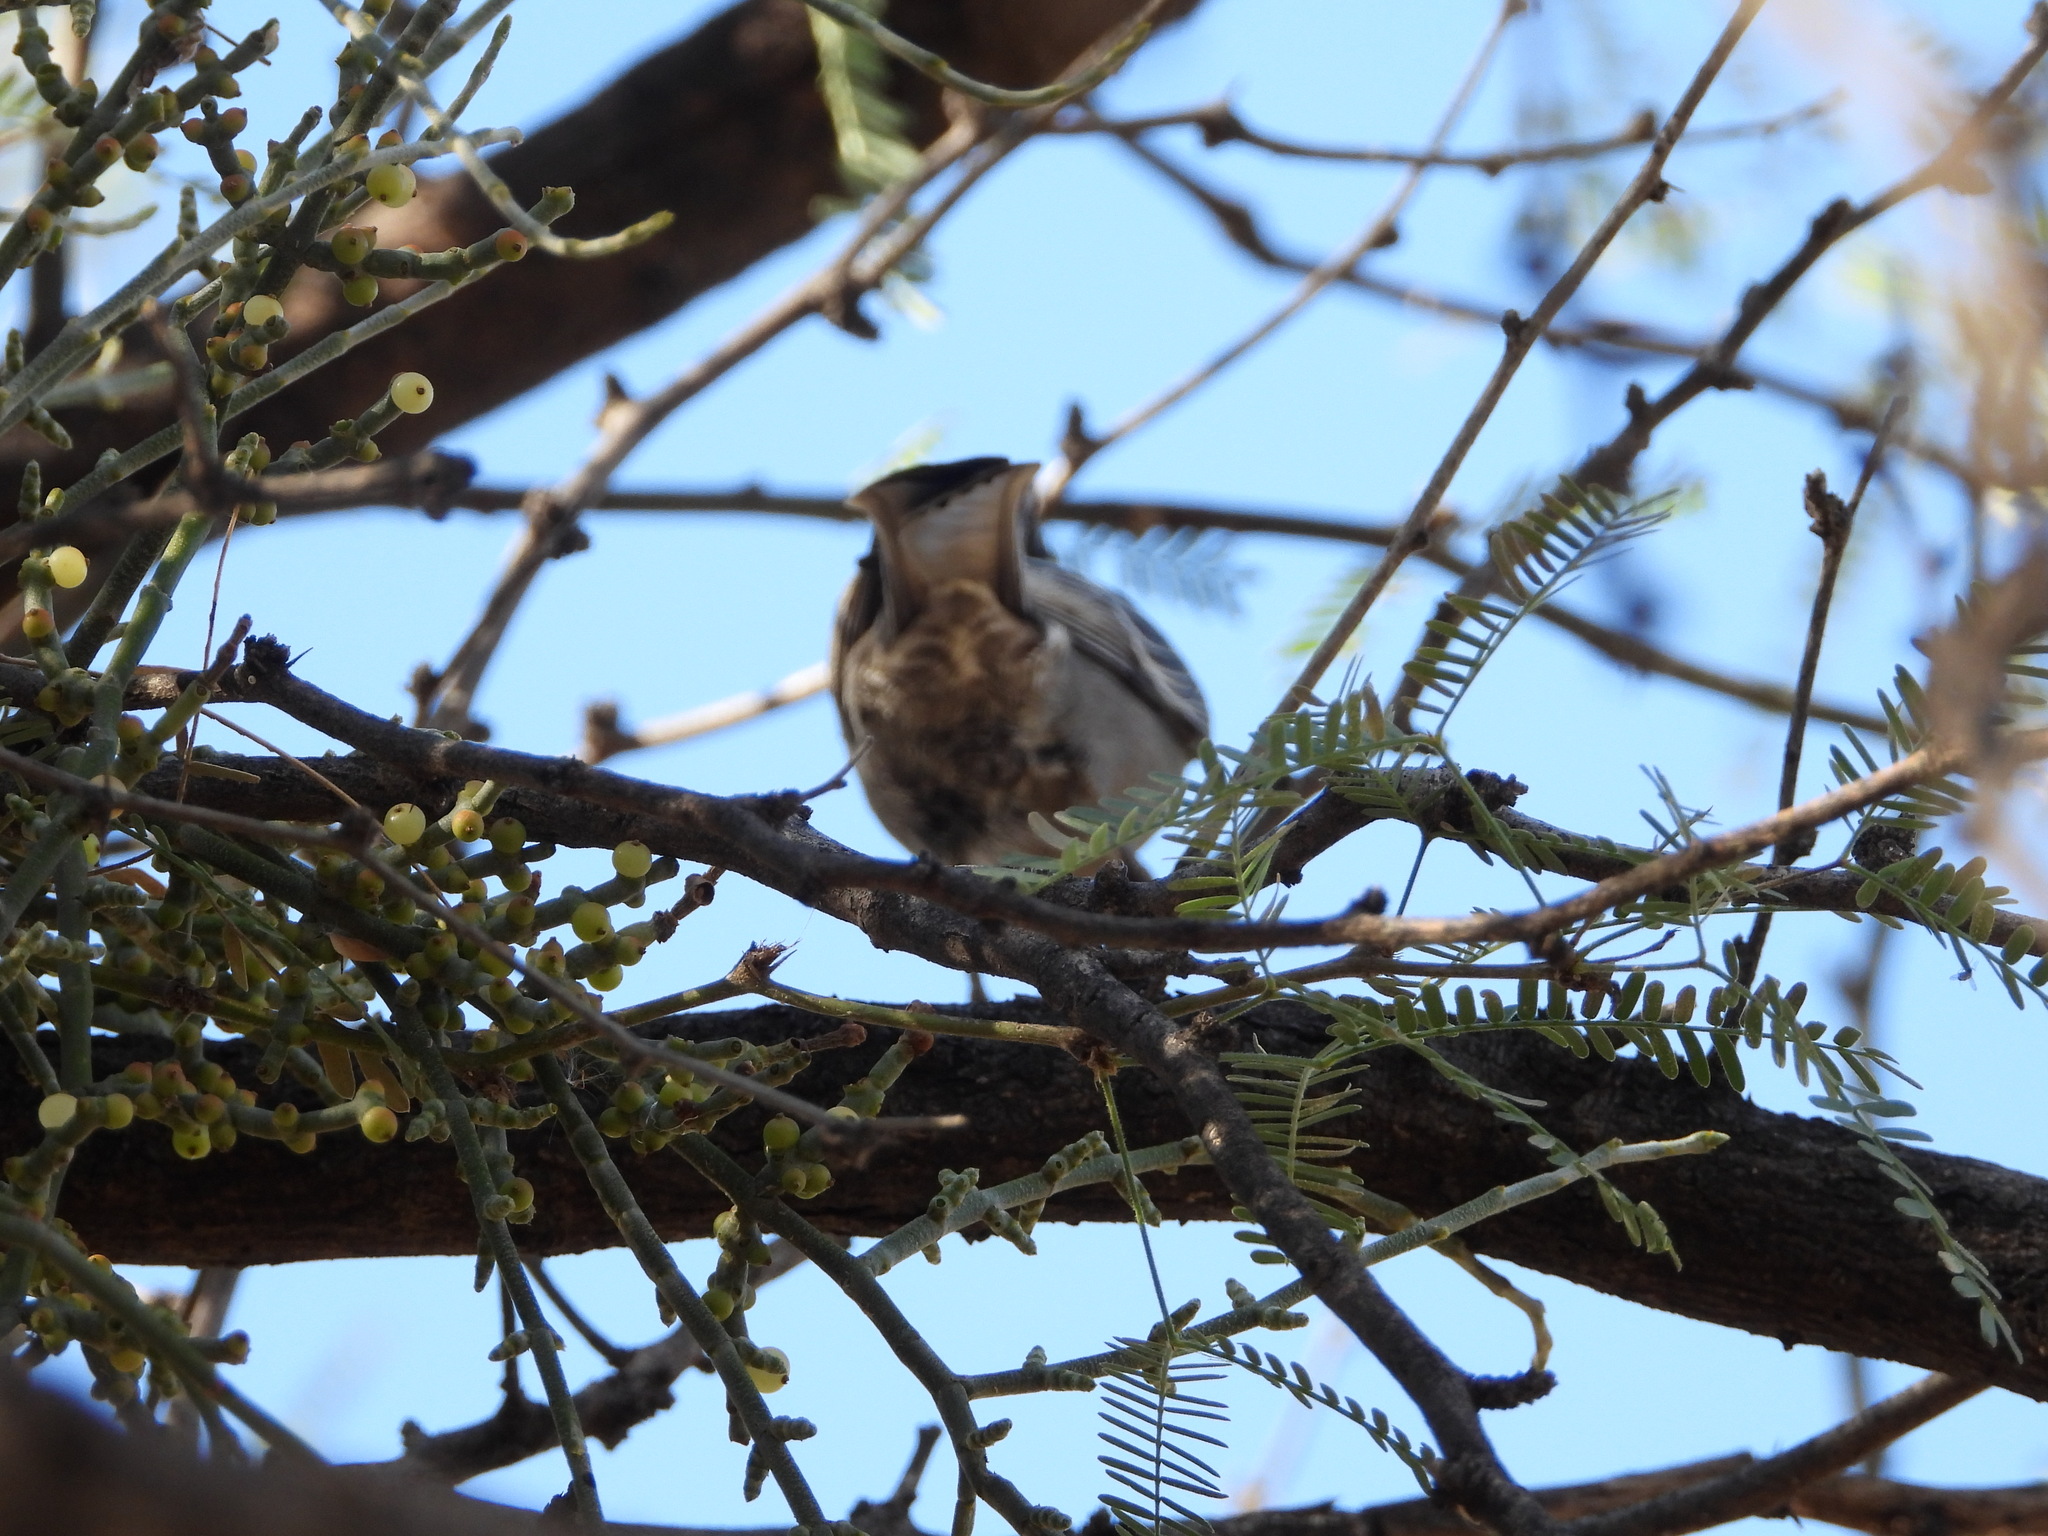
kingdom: Plantae
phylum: Tracheophyta
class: Magnoliopsida
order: Santalales
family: Viscaceae
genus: Phoradendron
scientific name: Phoradendron californicum
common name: Acacia mistletoe
